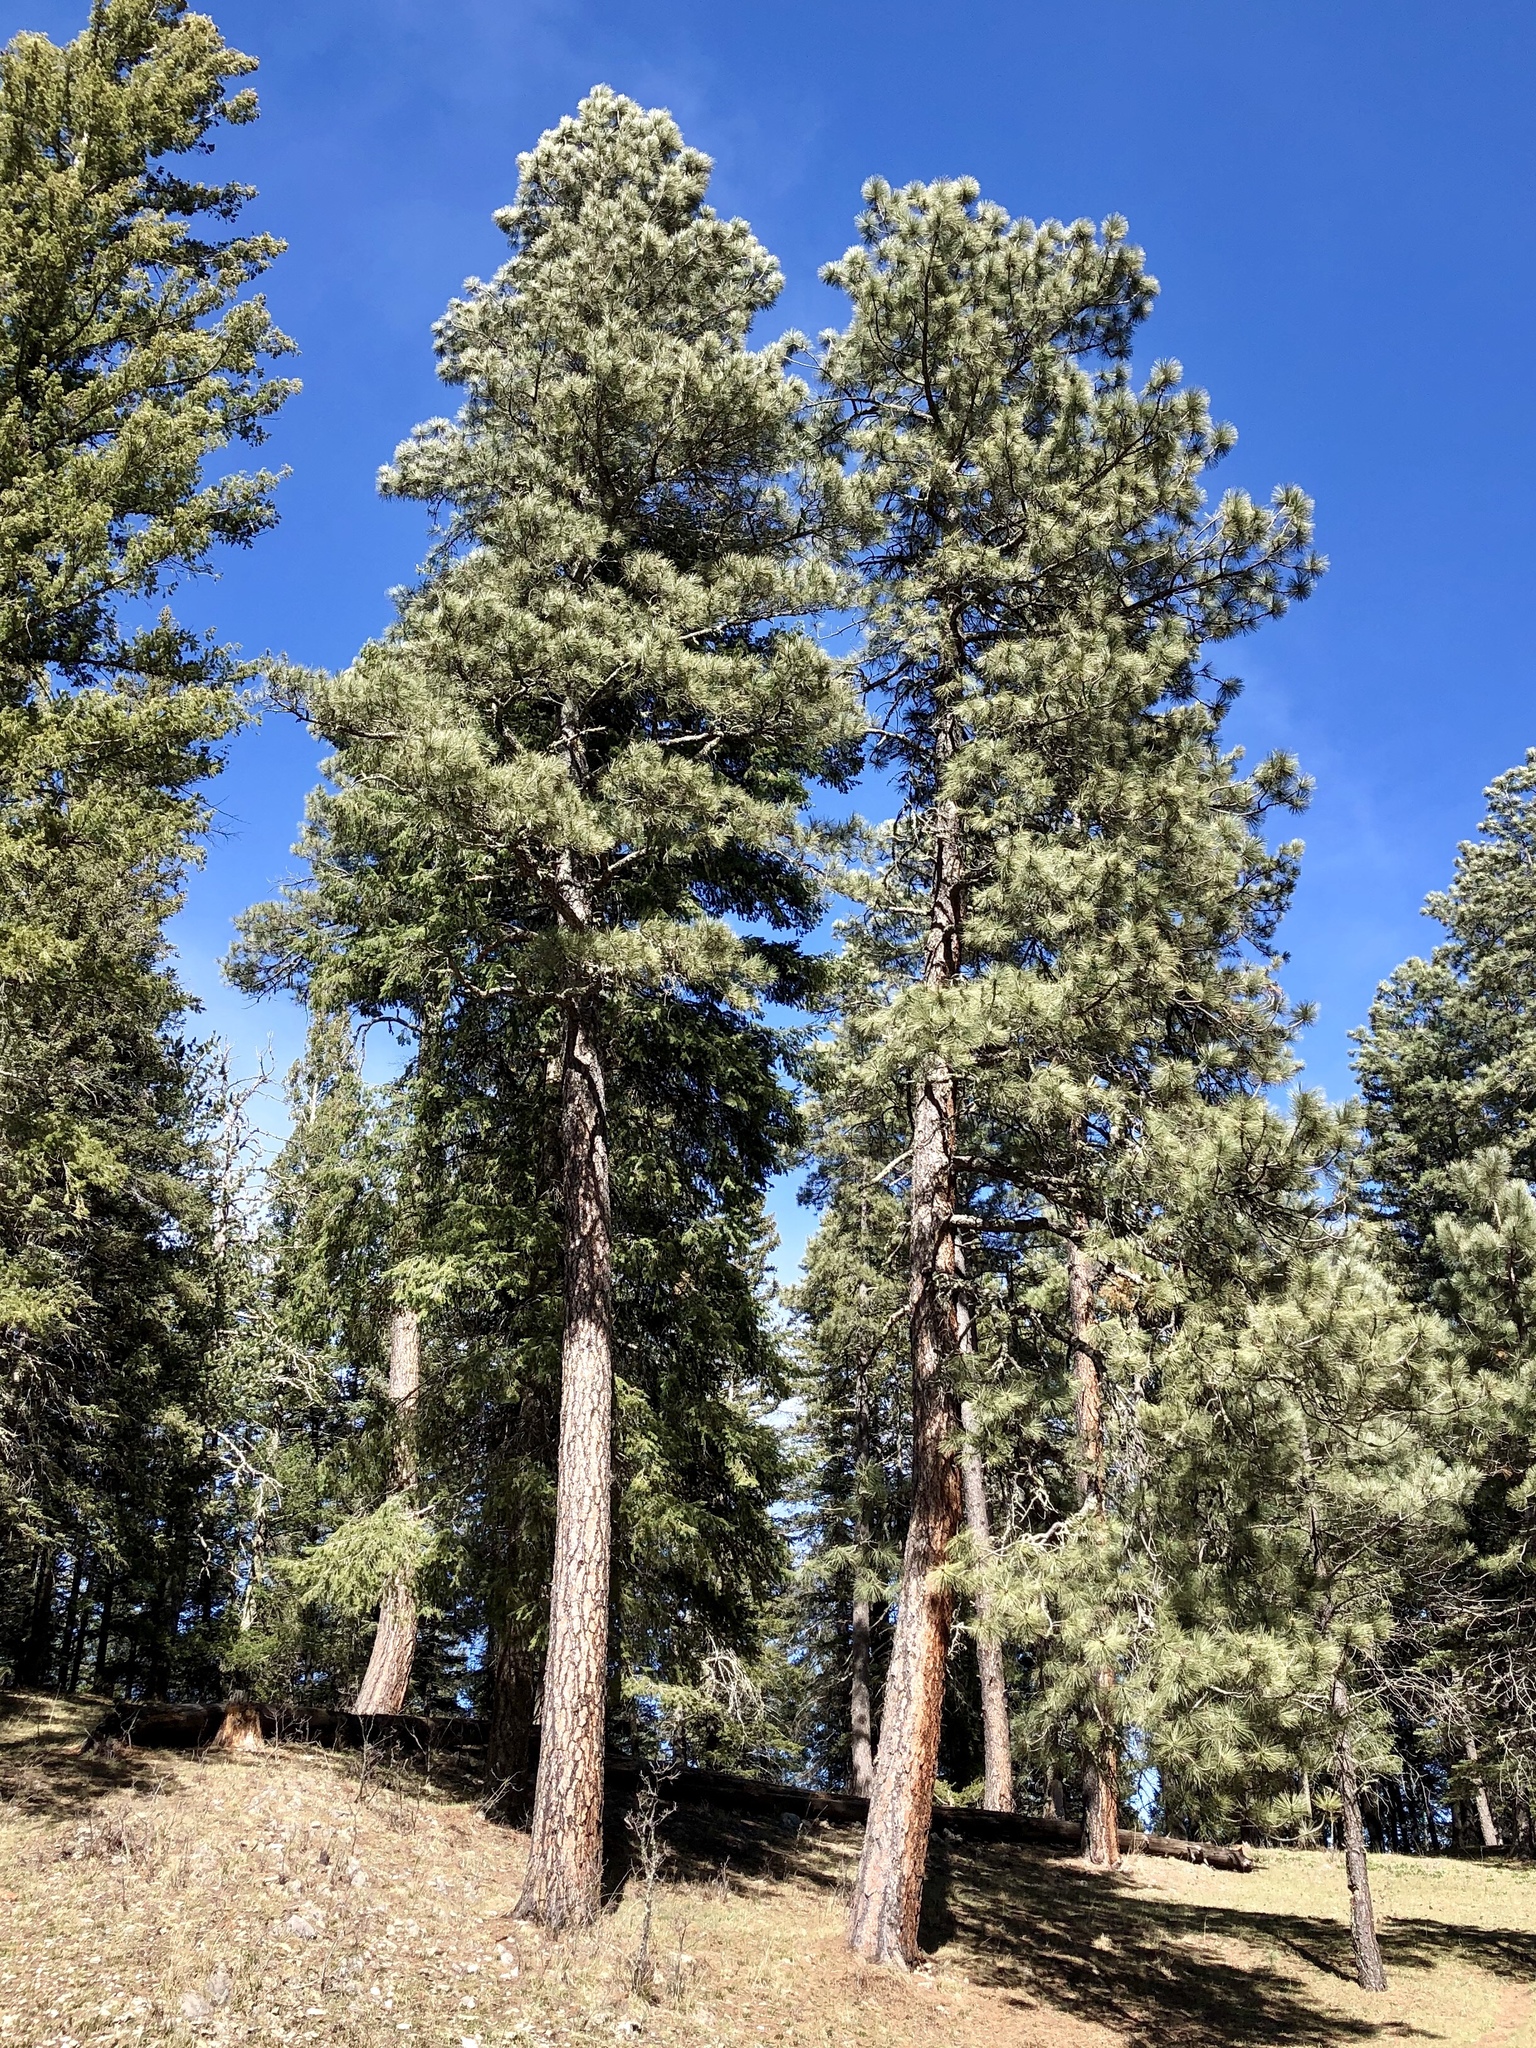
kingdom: Plantae
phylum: Tracheophyta
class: Pinopsida
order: Pinales
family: Pinaceae
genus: Pinus
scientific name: Pinus ponderosa
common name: Western yellow-pine
